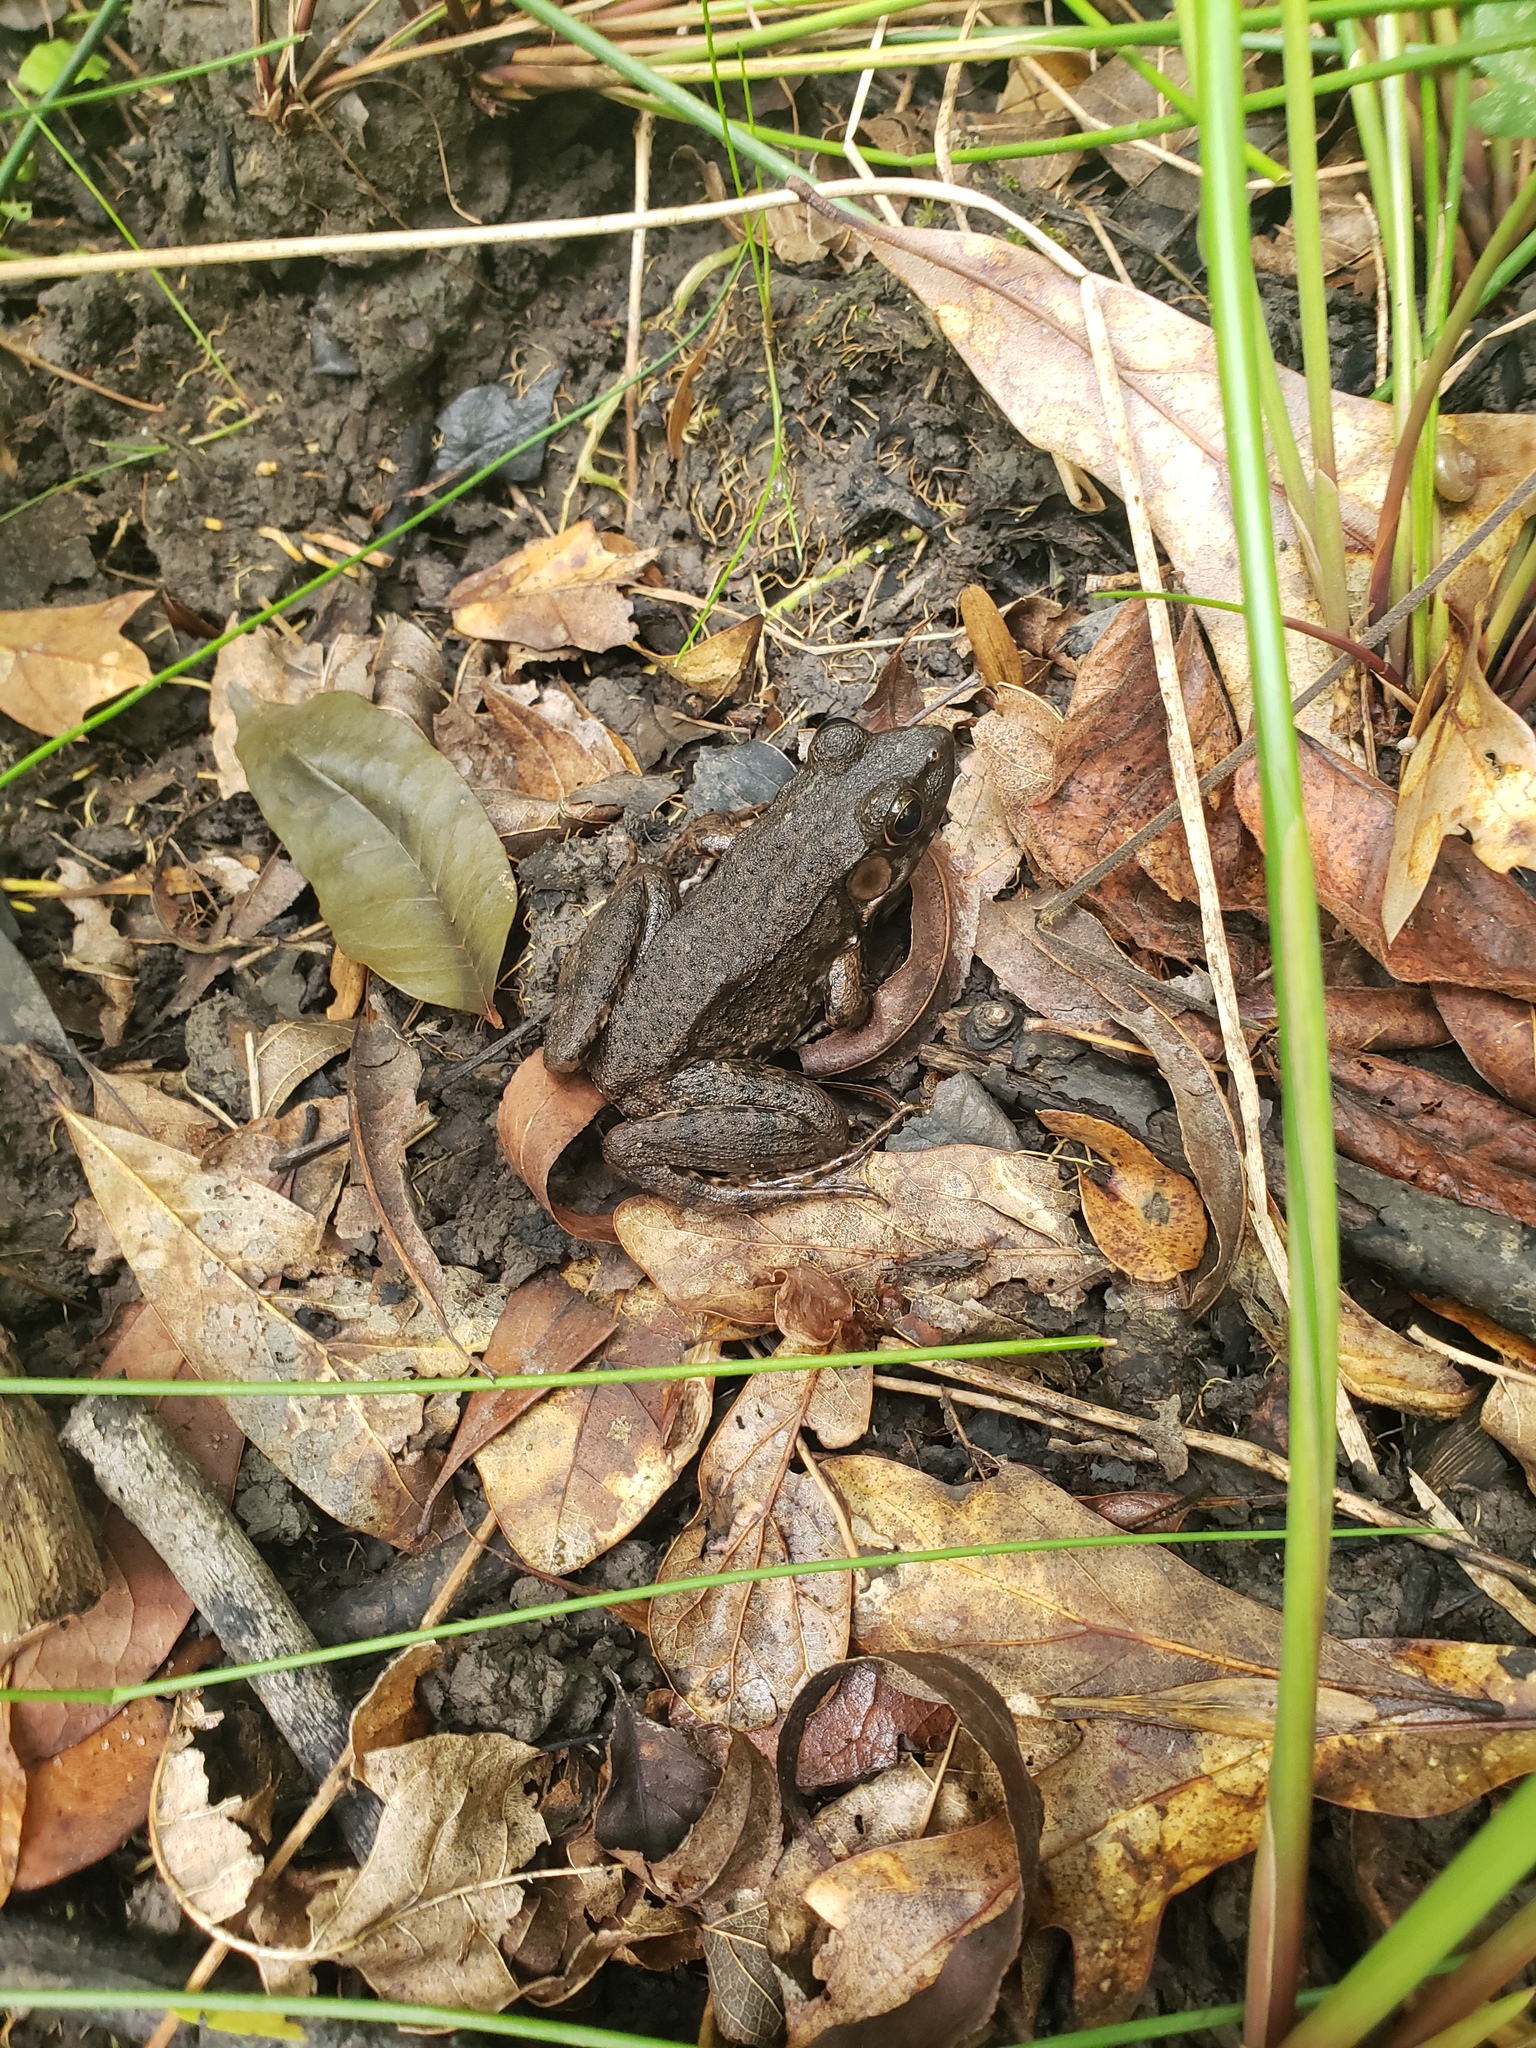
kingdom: Animalia
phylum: Chordata
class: Amphibia
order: Anura
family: Ranidae
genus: Lithobates
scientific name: Lithobates clamitans
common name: Green frog
